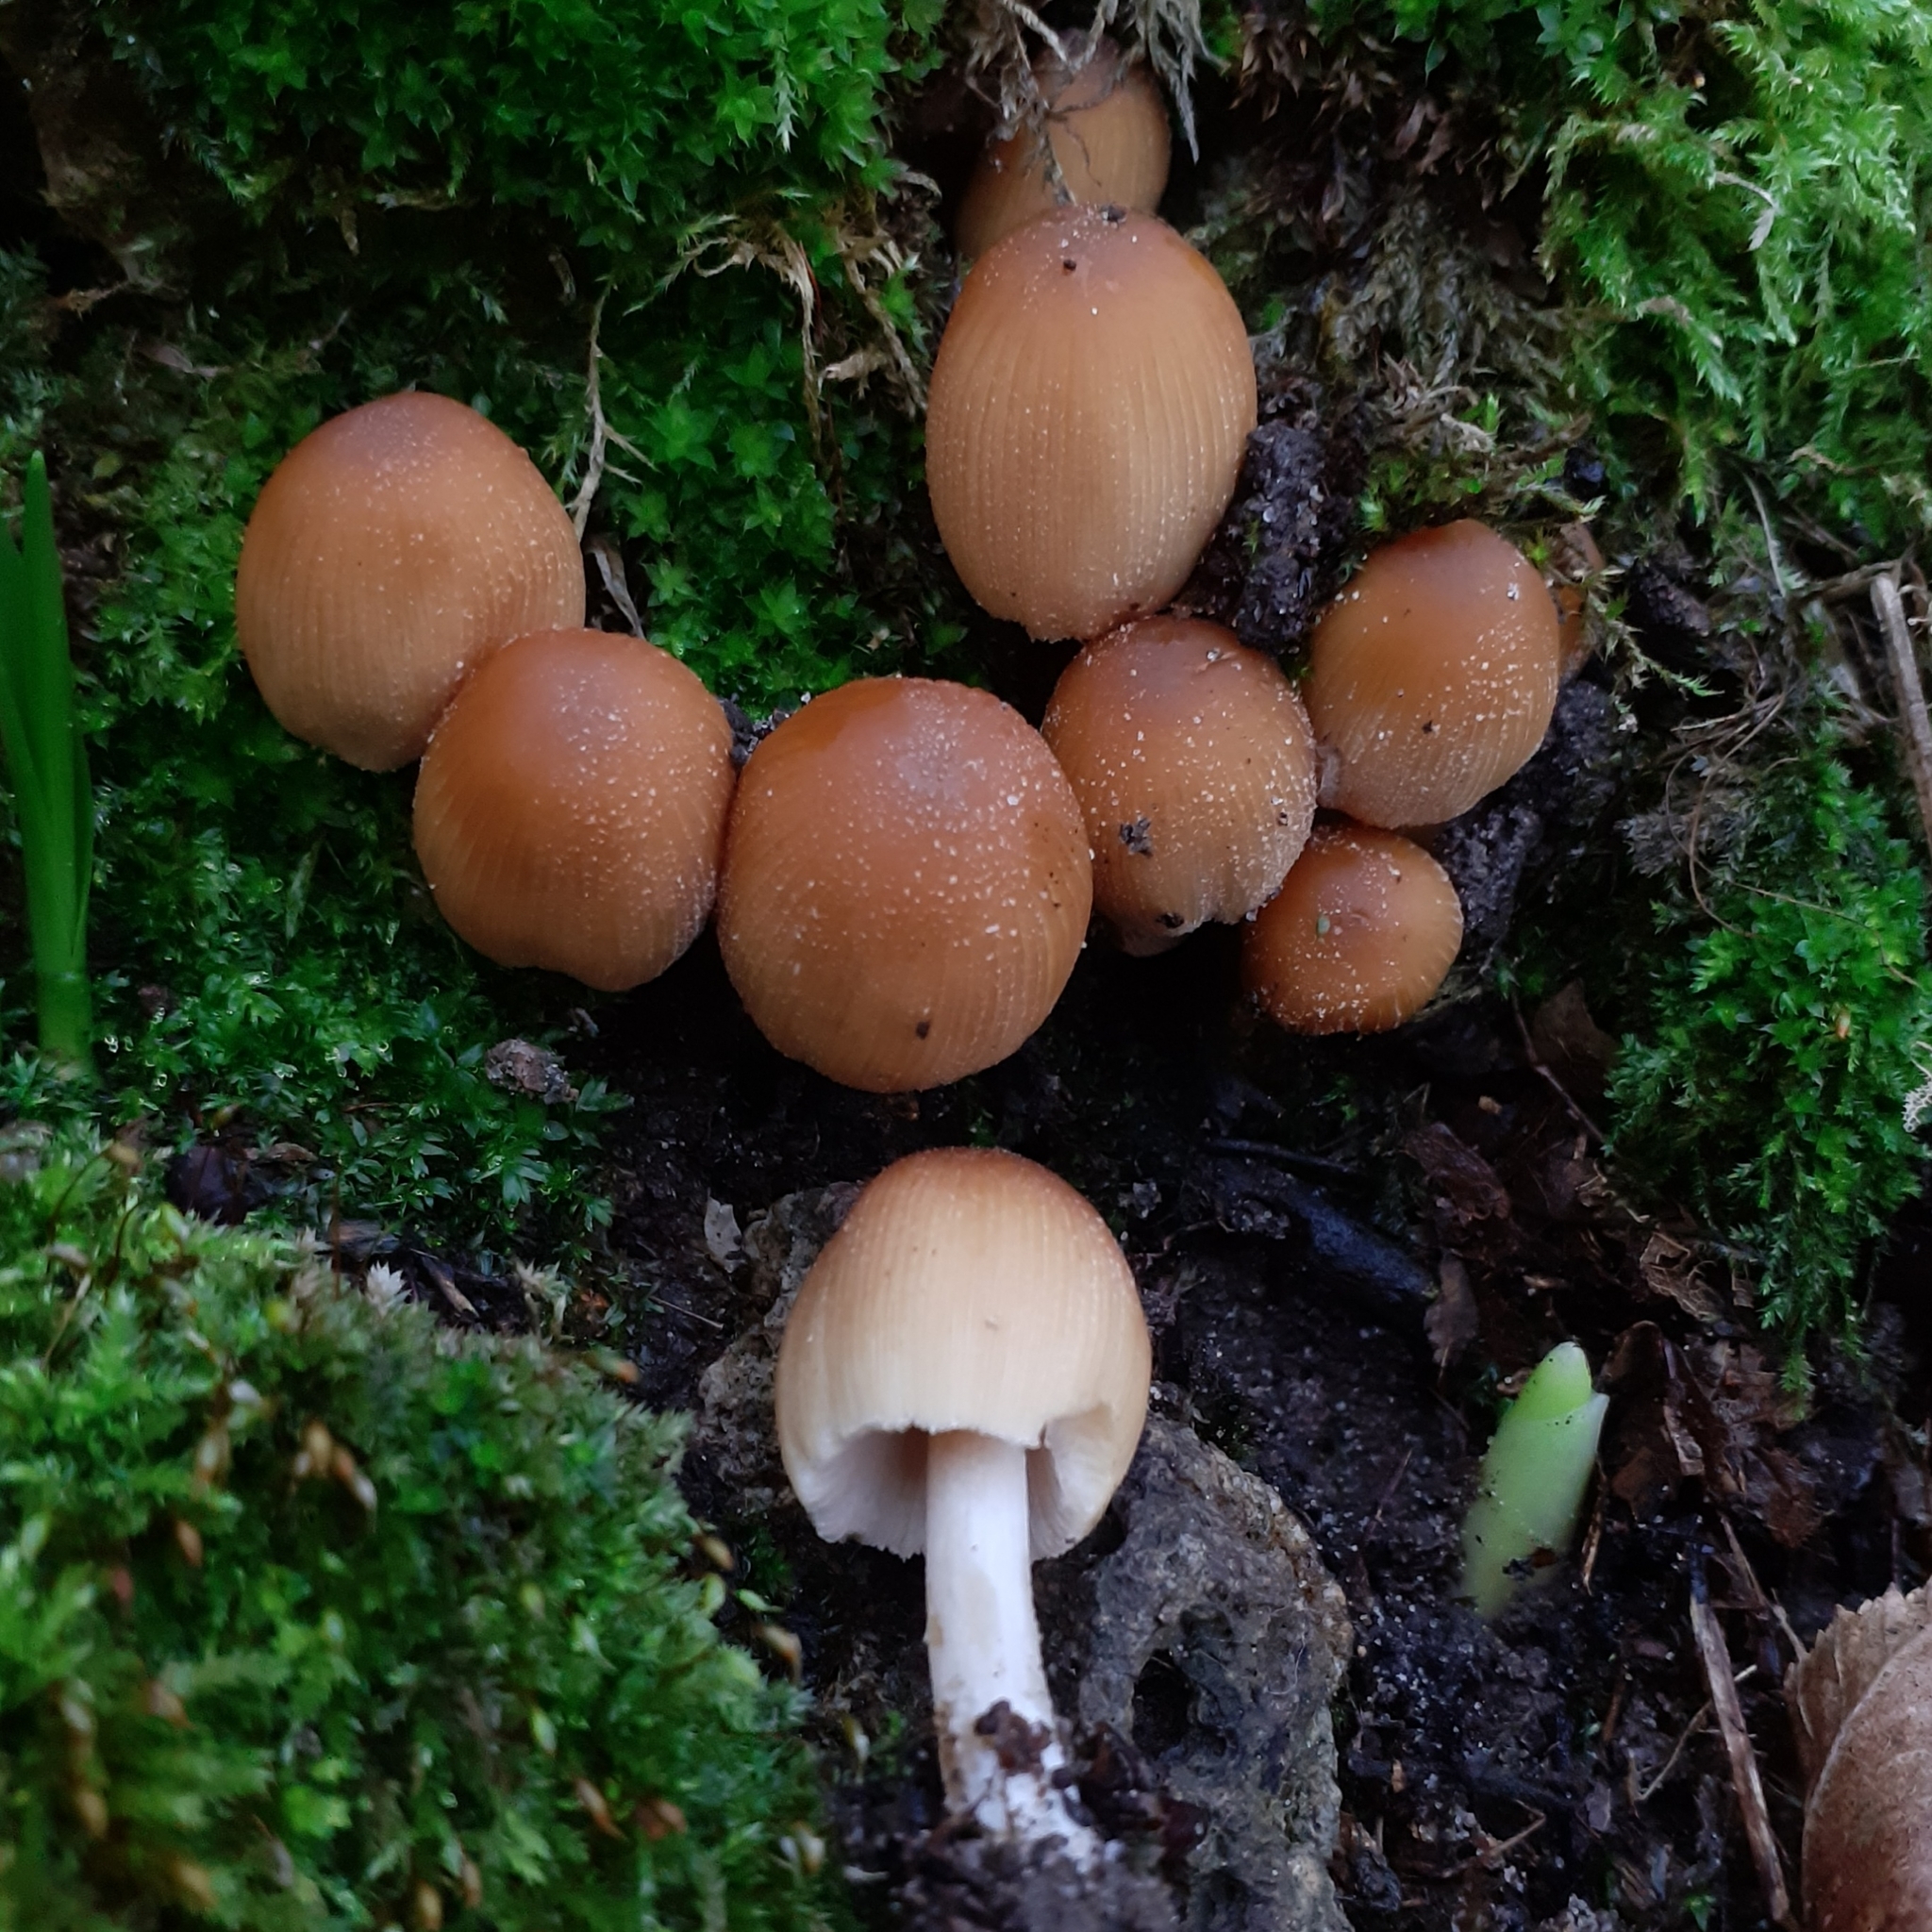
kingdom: Fungi
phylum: Basidiomycota
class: Agaricomycetes
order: Agaricales
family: Psathyrellaceae
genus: Coprinellus
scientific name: Coprinellus micaceus
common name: Glistening ink-cap
